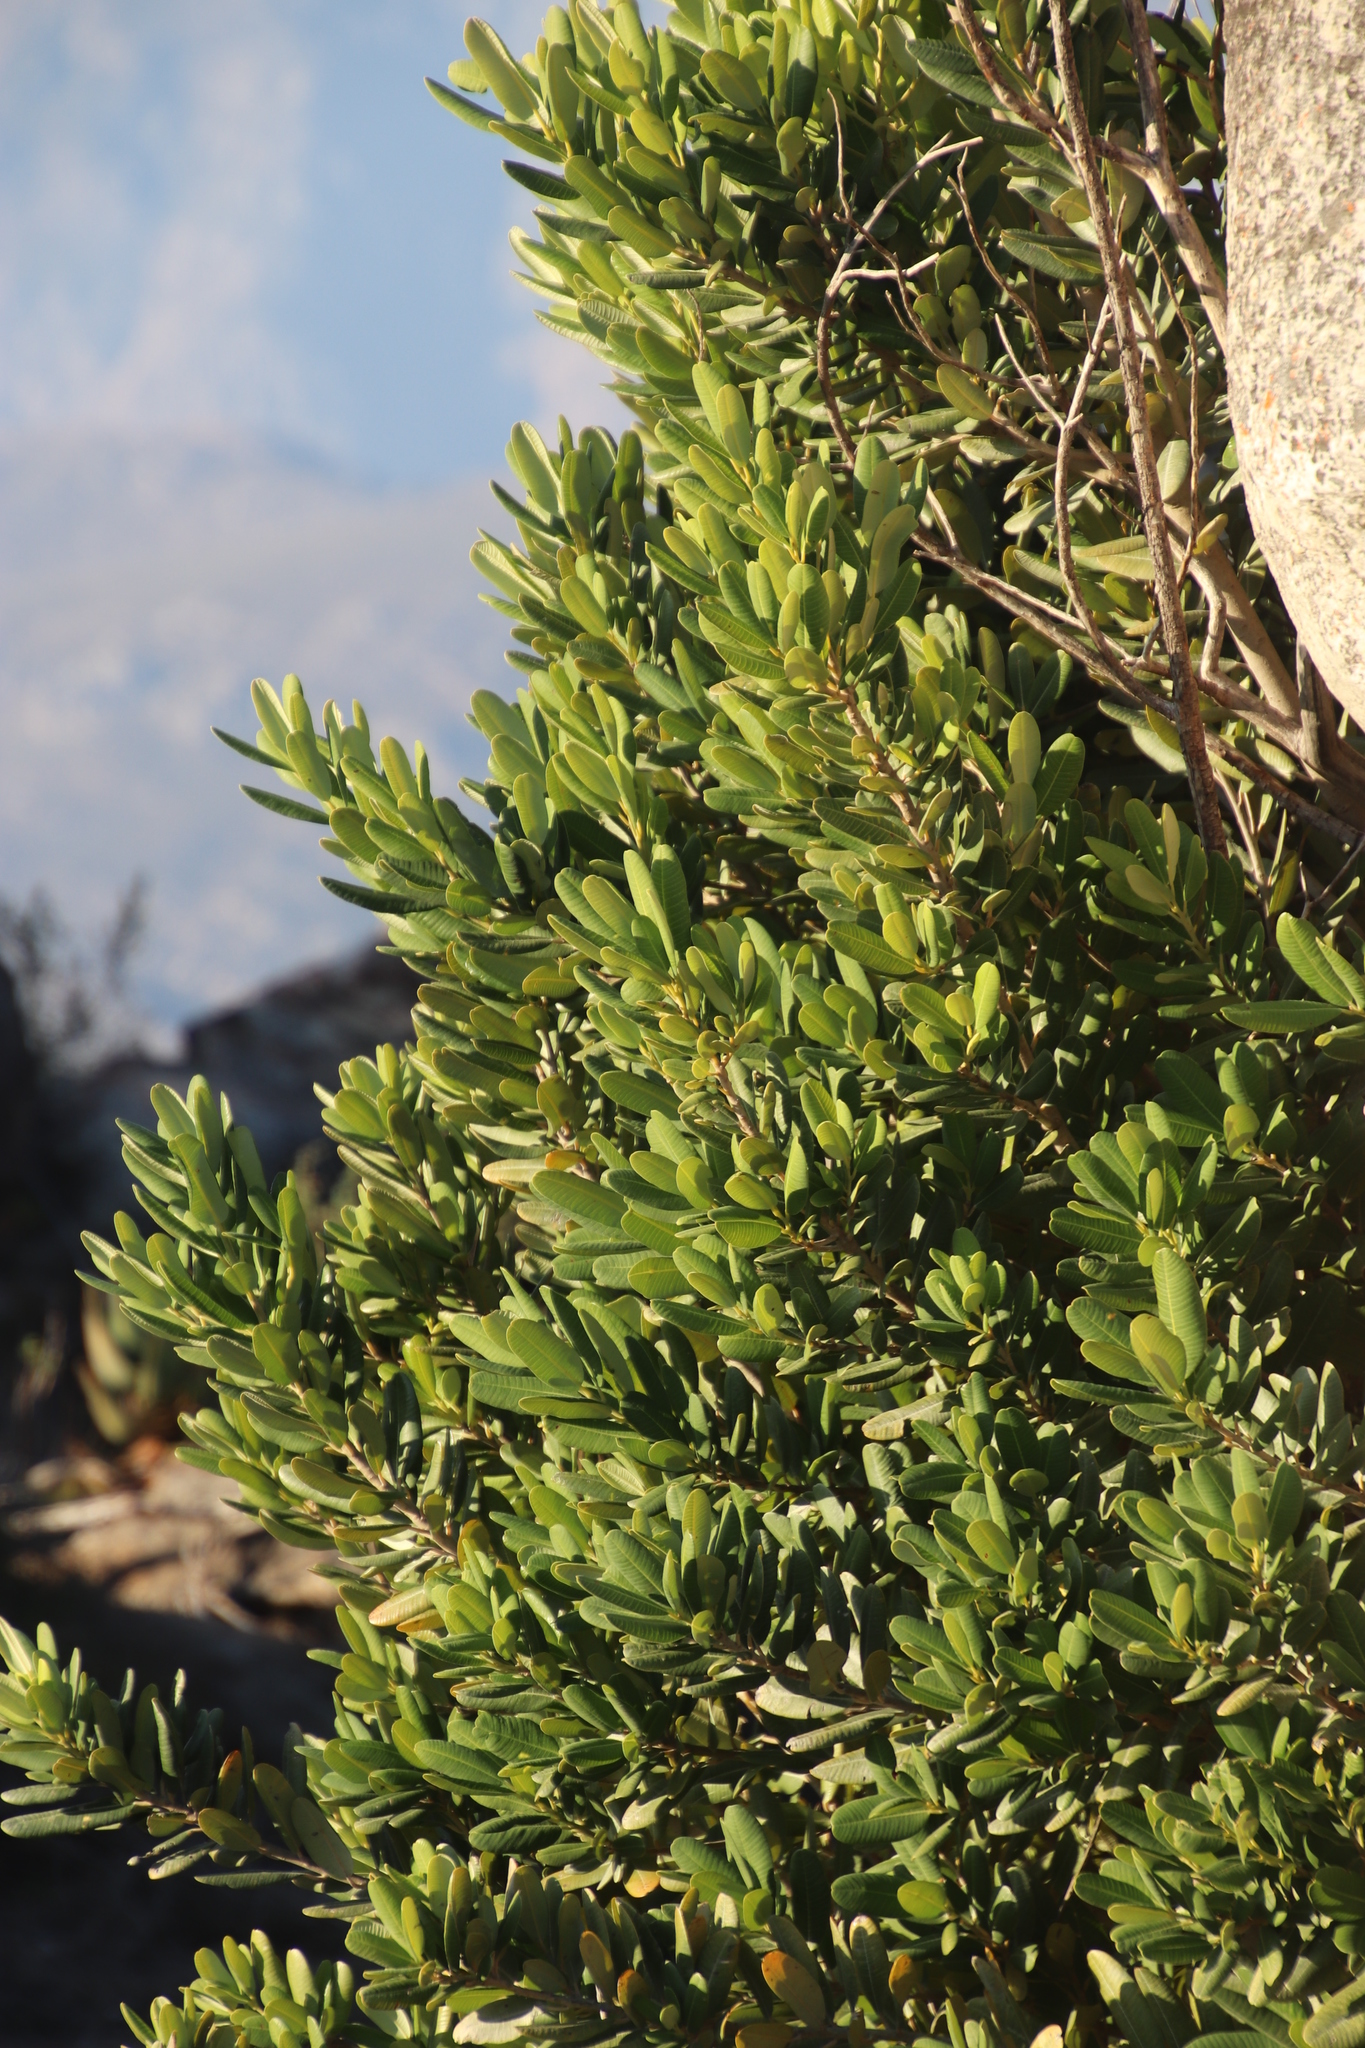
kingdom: Plantae
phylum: Tracheophyta
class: Magnoliopsida
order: Sapindales
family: Anacardiaceae
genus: Heeria
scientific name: Heeria argentea
